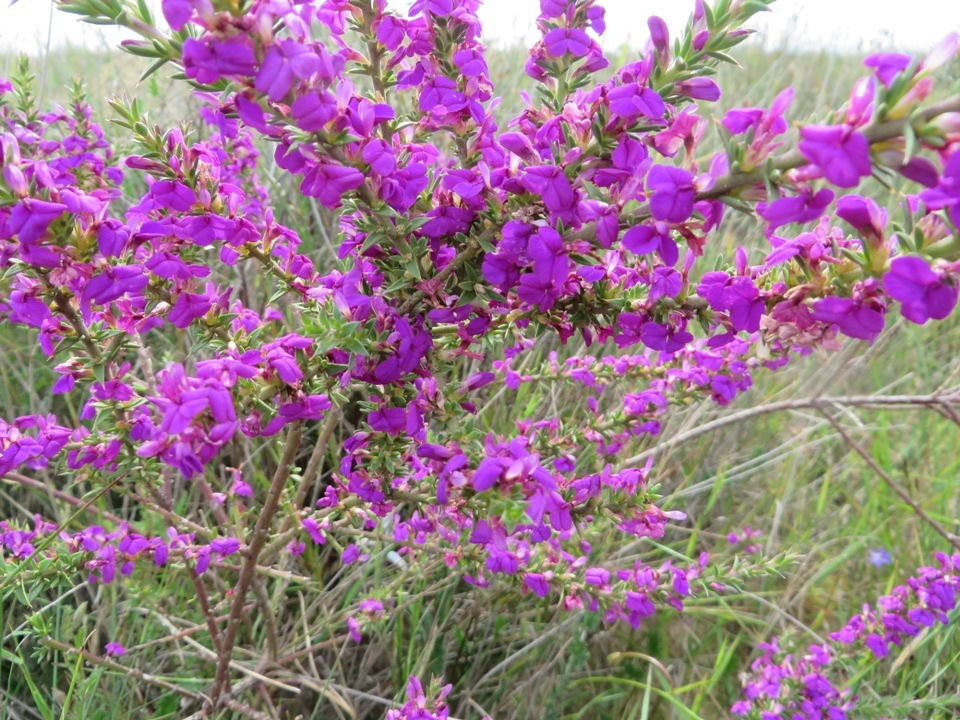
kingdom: Plantae
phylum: Tracheophyta
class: Magnoliopsida
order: Fabales
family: Polygalaceae
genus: Muraltia
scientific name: Muraltia heisteria
